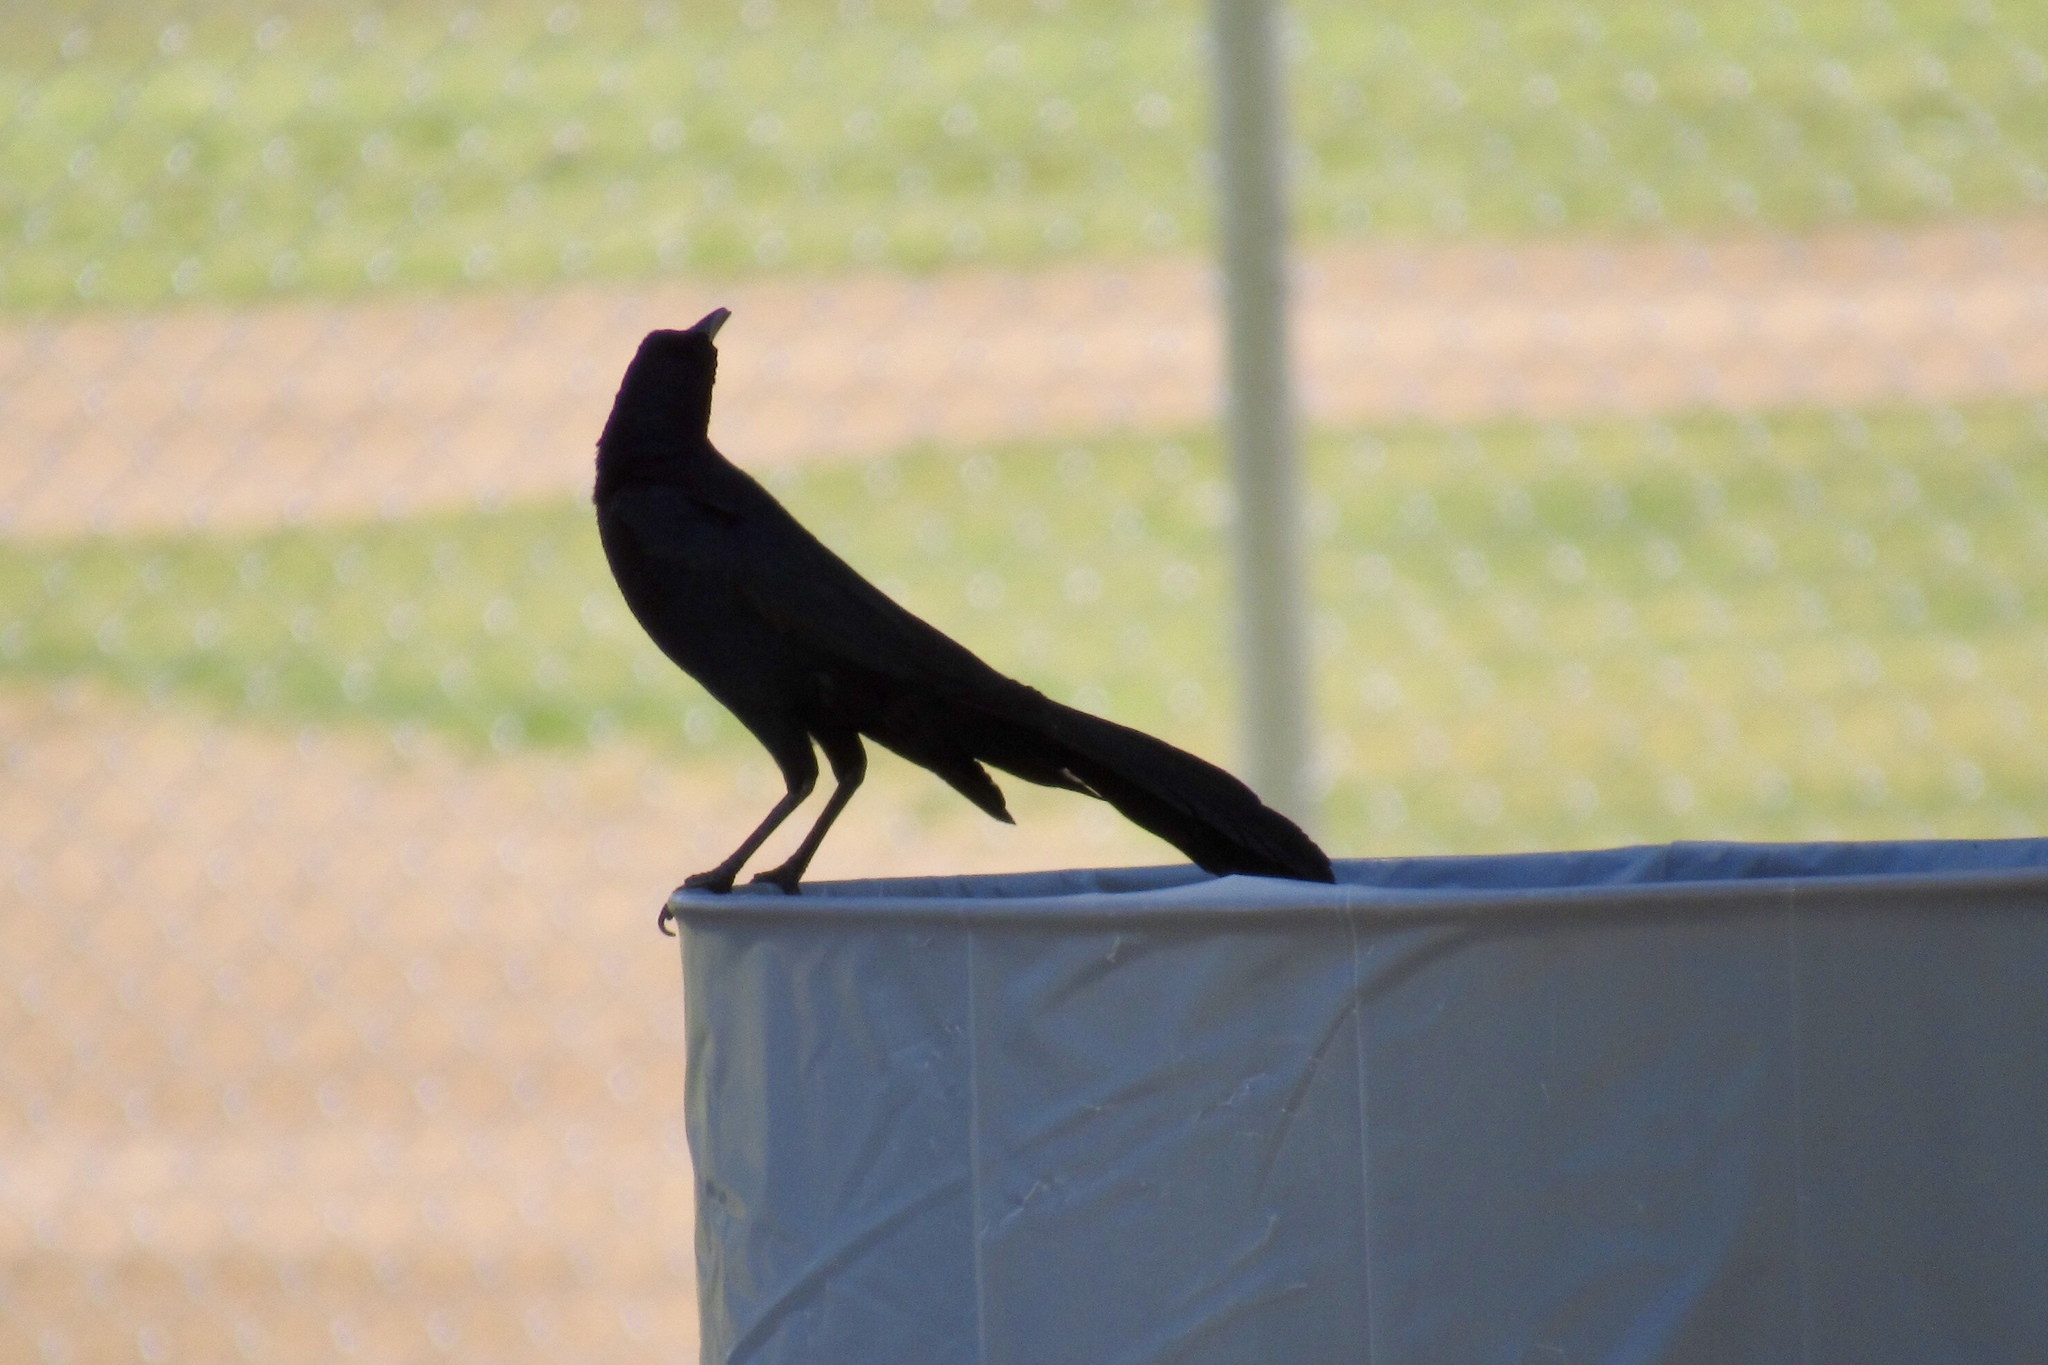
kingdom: Animalia
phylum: Chordata
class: Aves
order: Passeriformes
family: Icteridae
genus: Quiscalus
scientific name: Quiscalus mexicanus
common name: Great-tailed grackle
